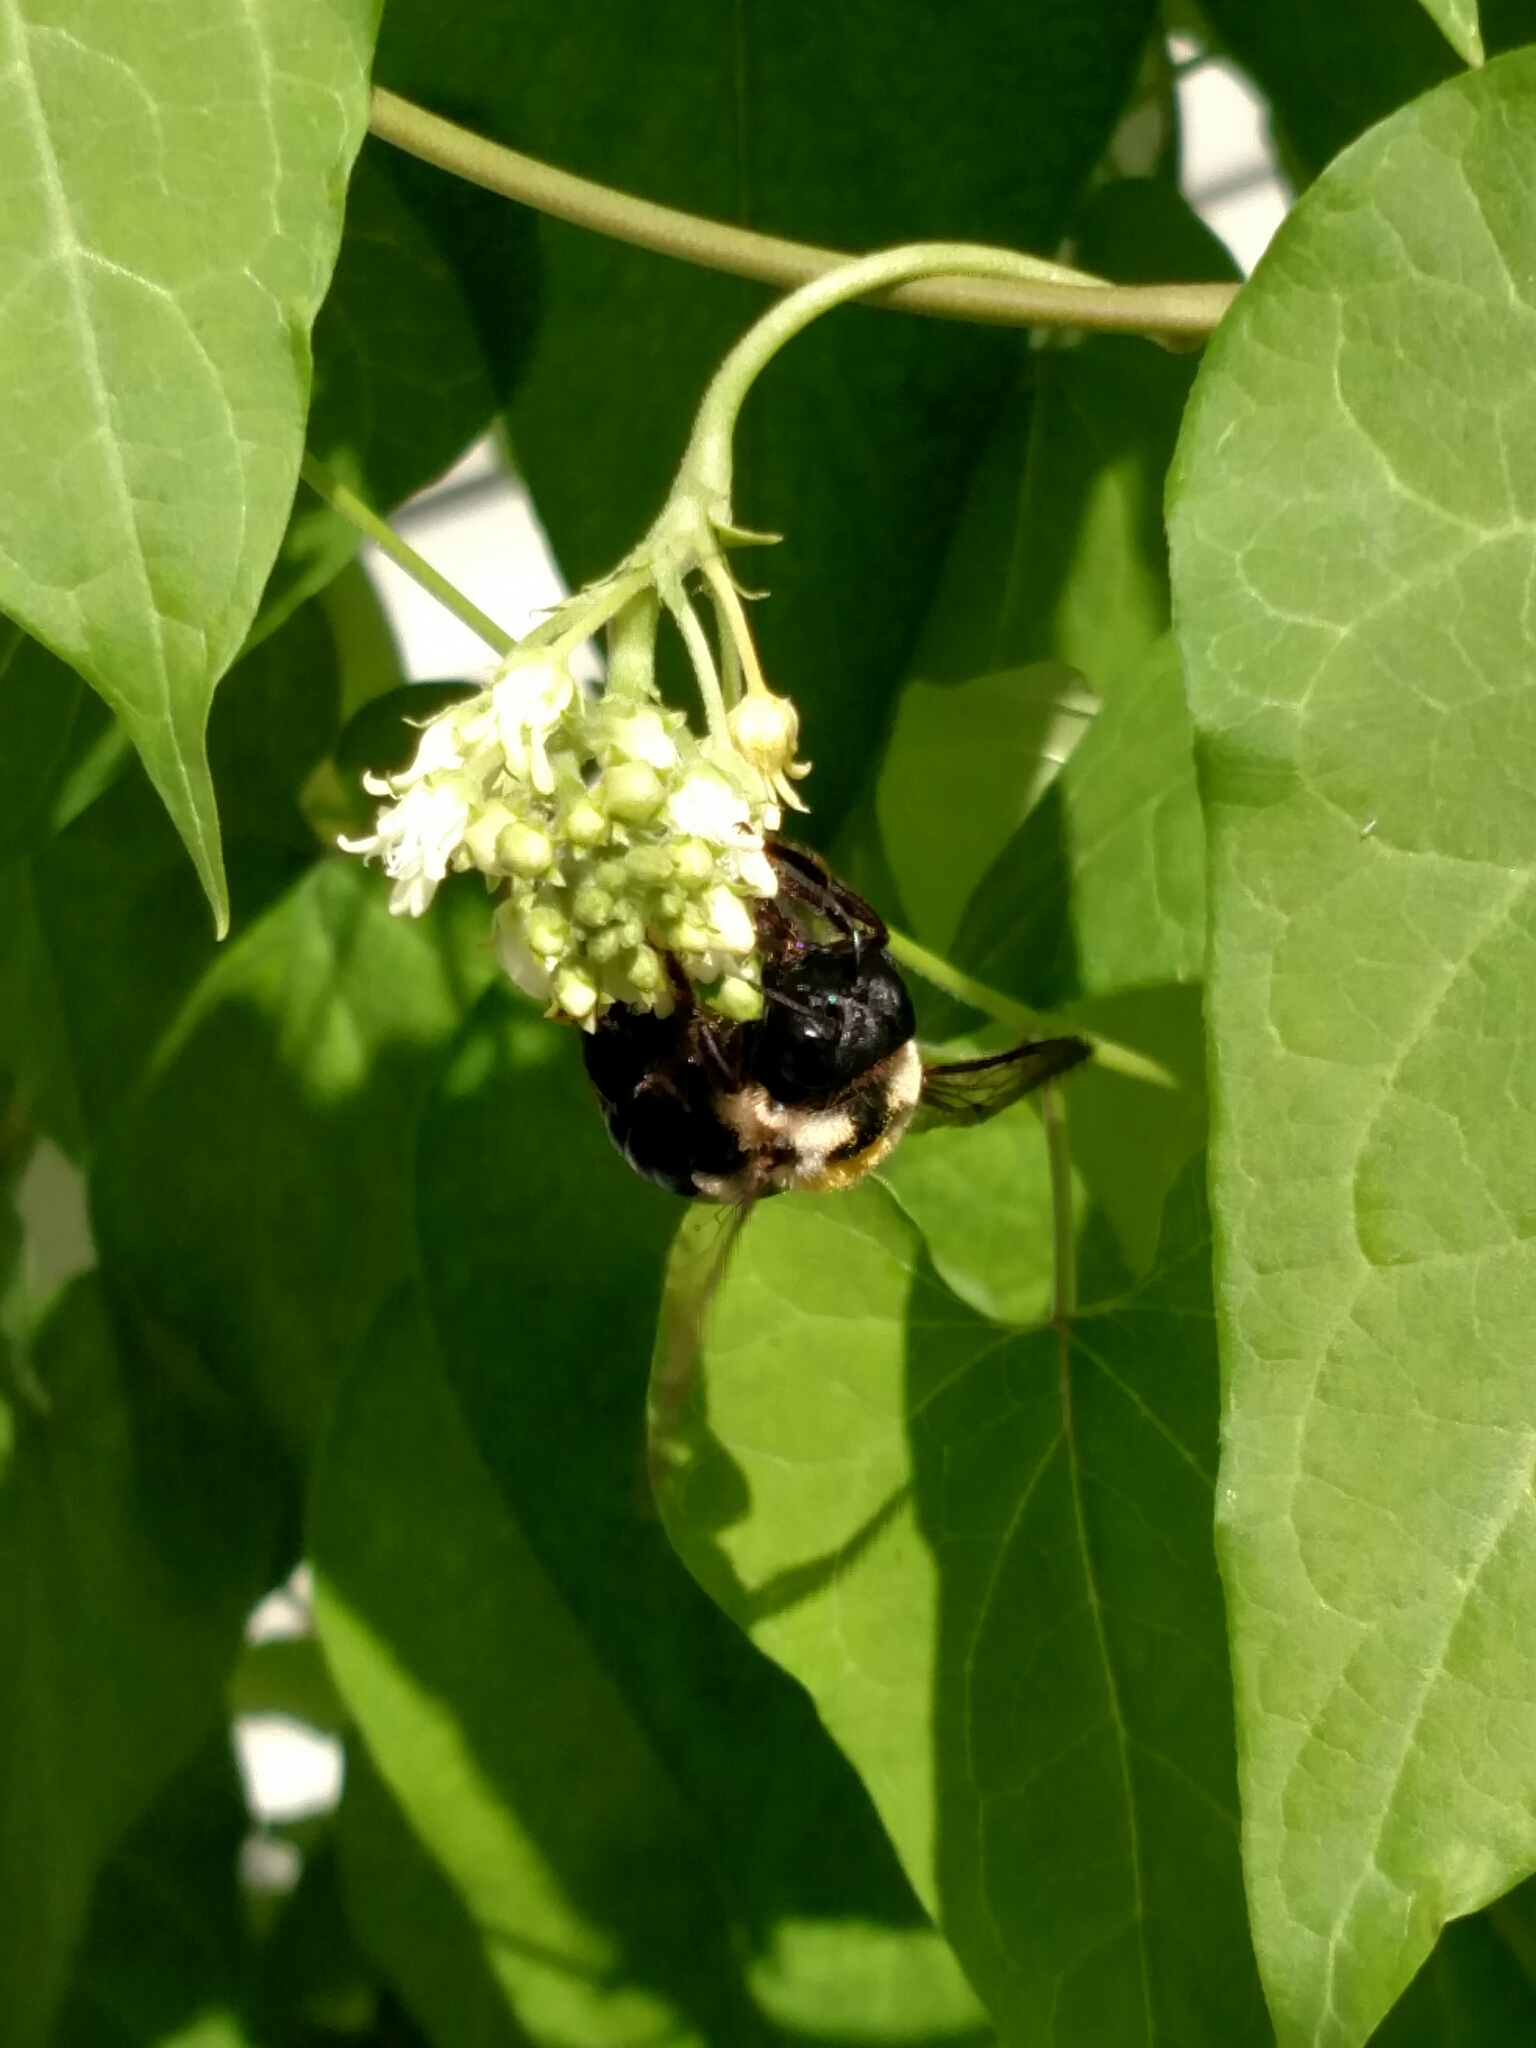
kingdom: Animalia
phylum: Arthropoda
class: Insecta
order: Hymenoptera
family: Apidae
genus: Xylocopa
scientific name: Xylocopa virginica
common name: Carpenter bee
